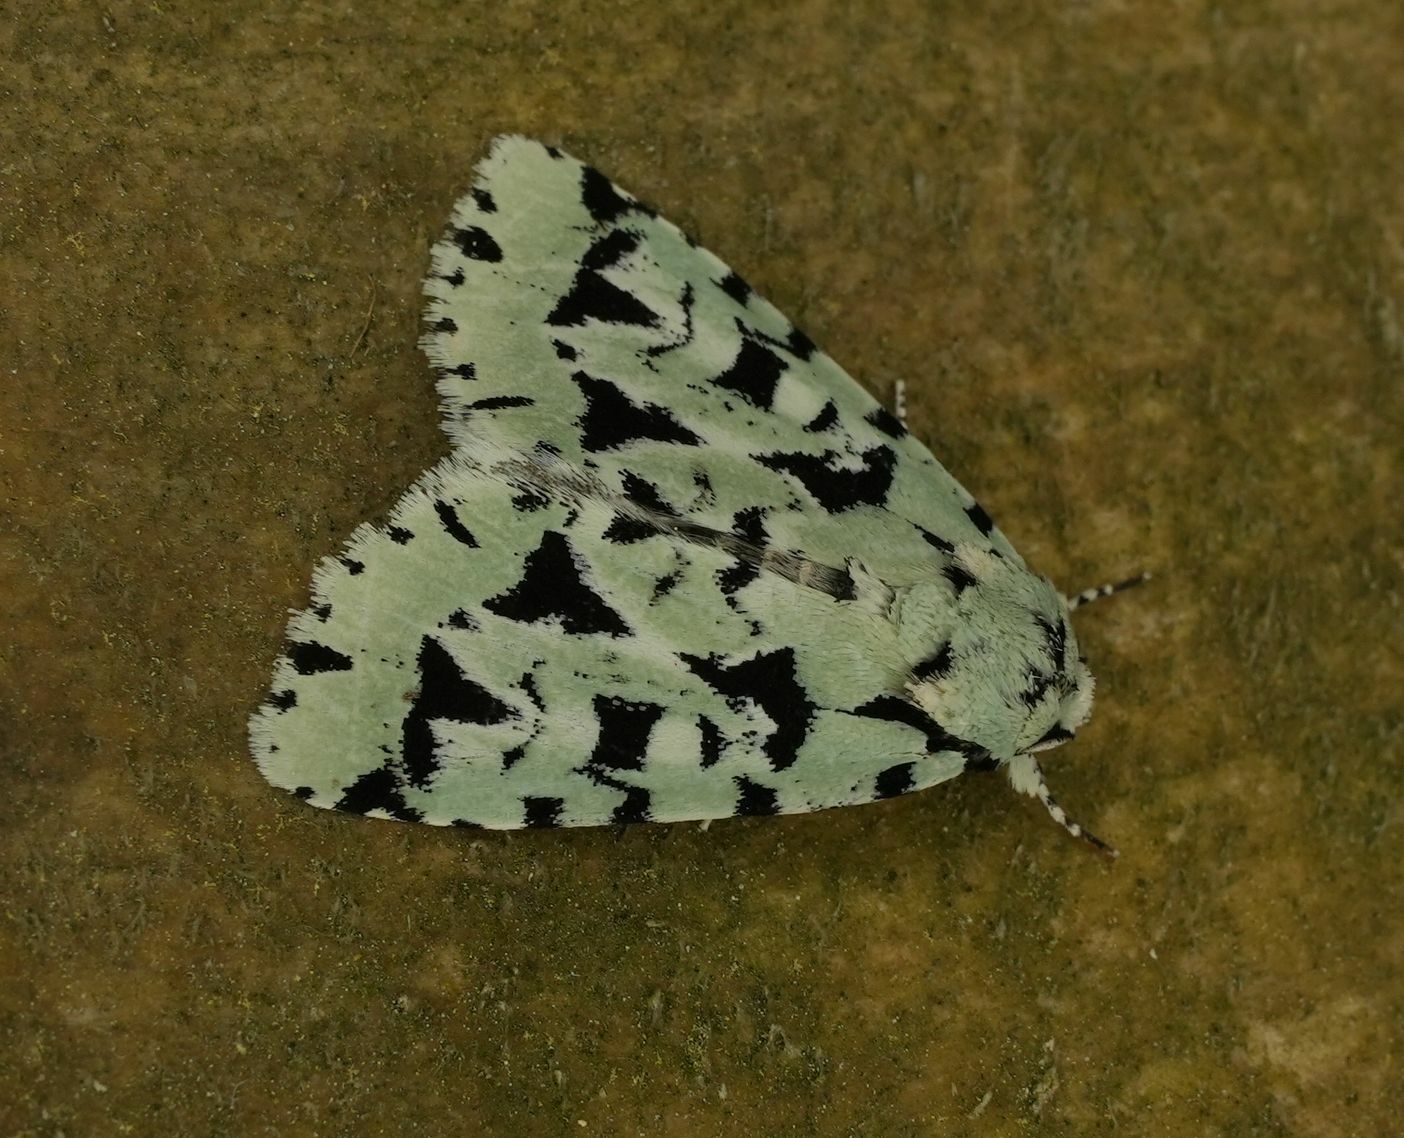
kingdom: Animalia
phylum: Arthropoda
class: Insecta
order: Lepidoptera
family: Noctuidae
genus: Acronicta
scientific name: Acronicta fallax
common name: Green marvel
